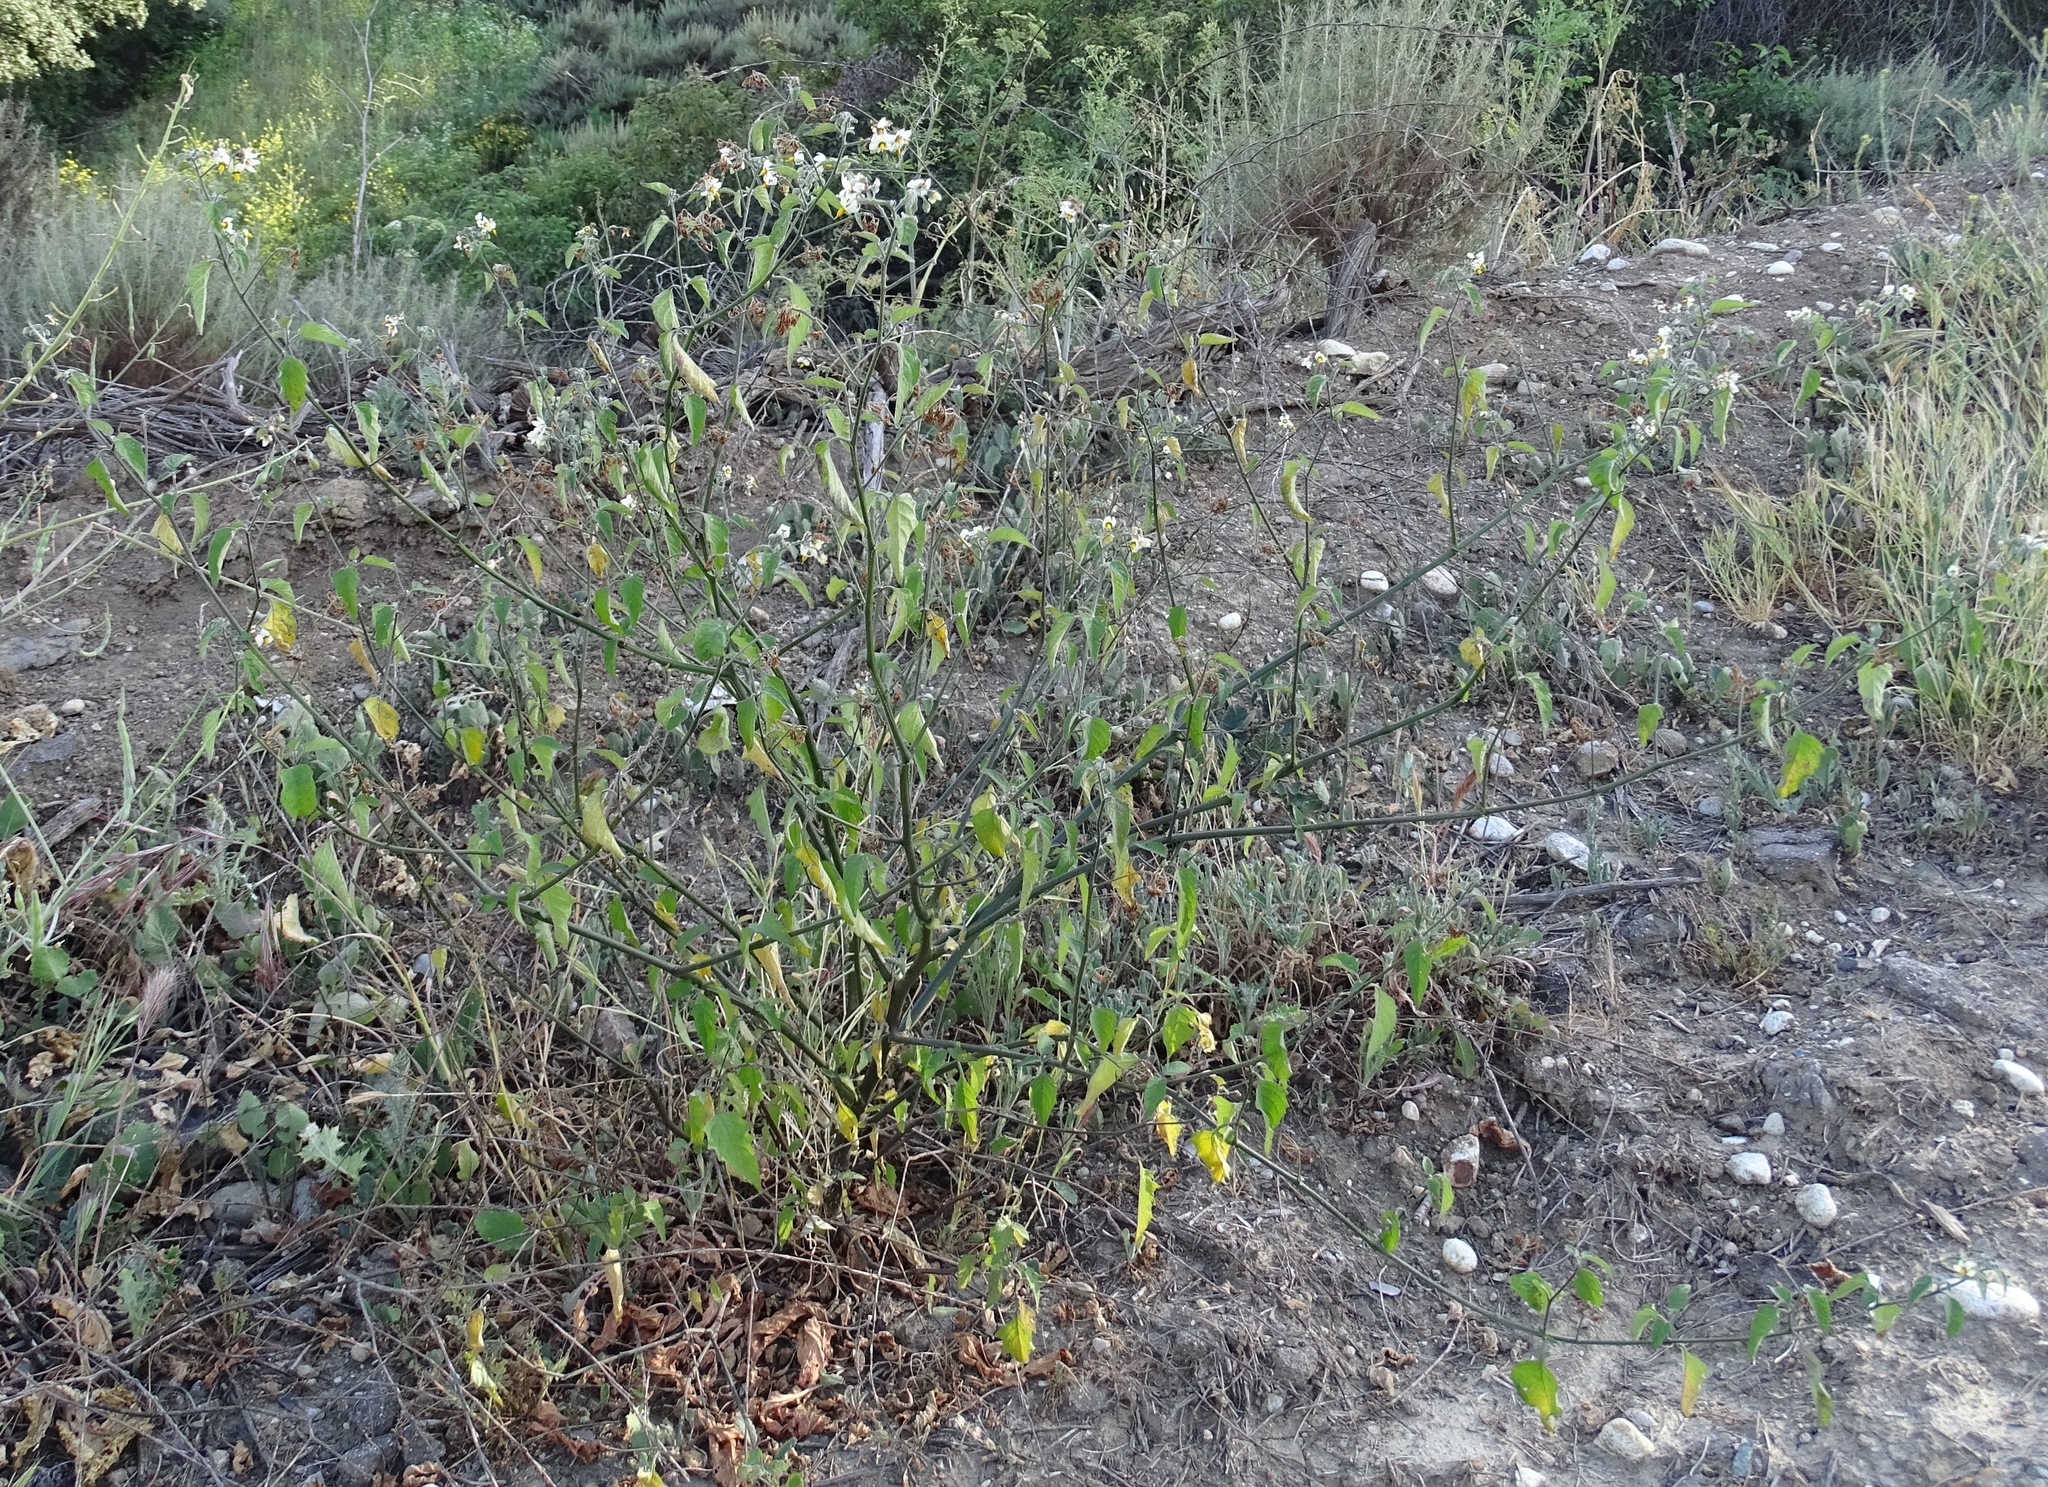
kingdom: Plantae
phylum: Tracheophyta
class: Magnoliopsida
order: Solanales
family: Solanaceae
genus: Solanum
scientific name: Solanum douglasii
